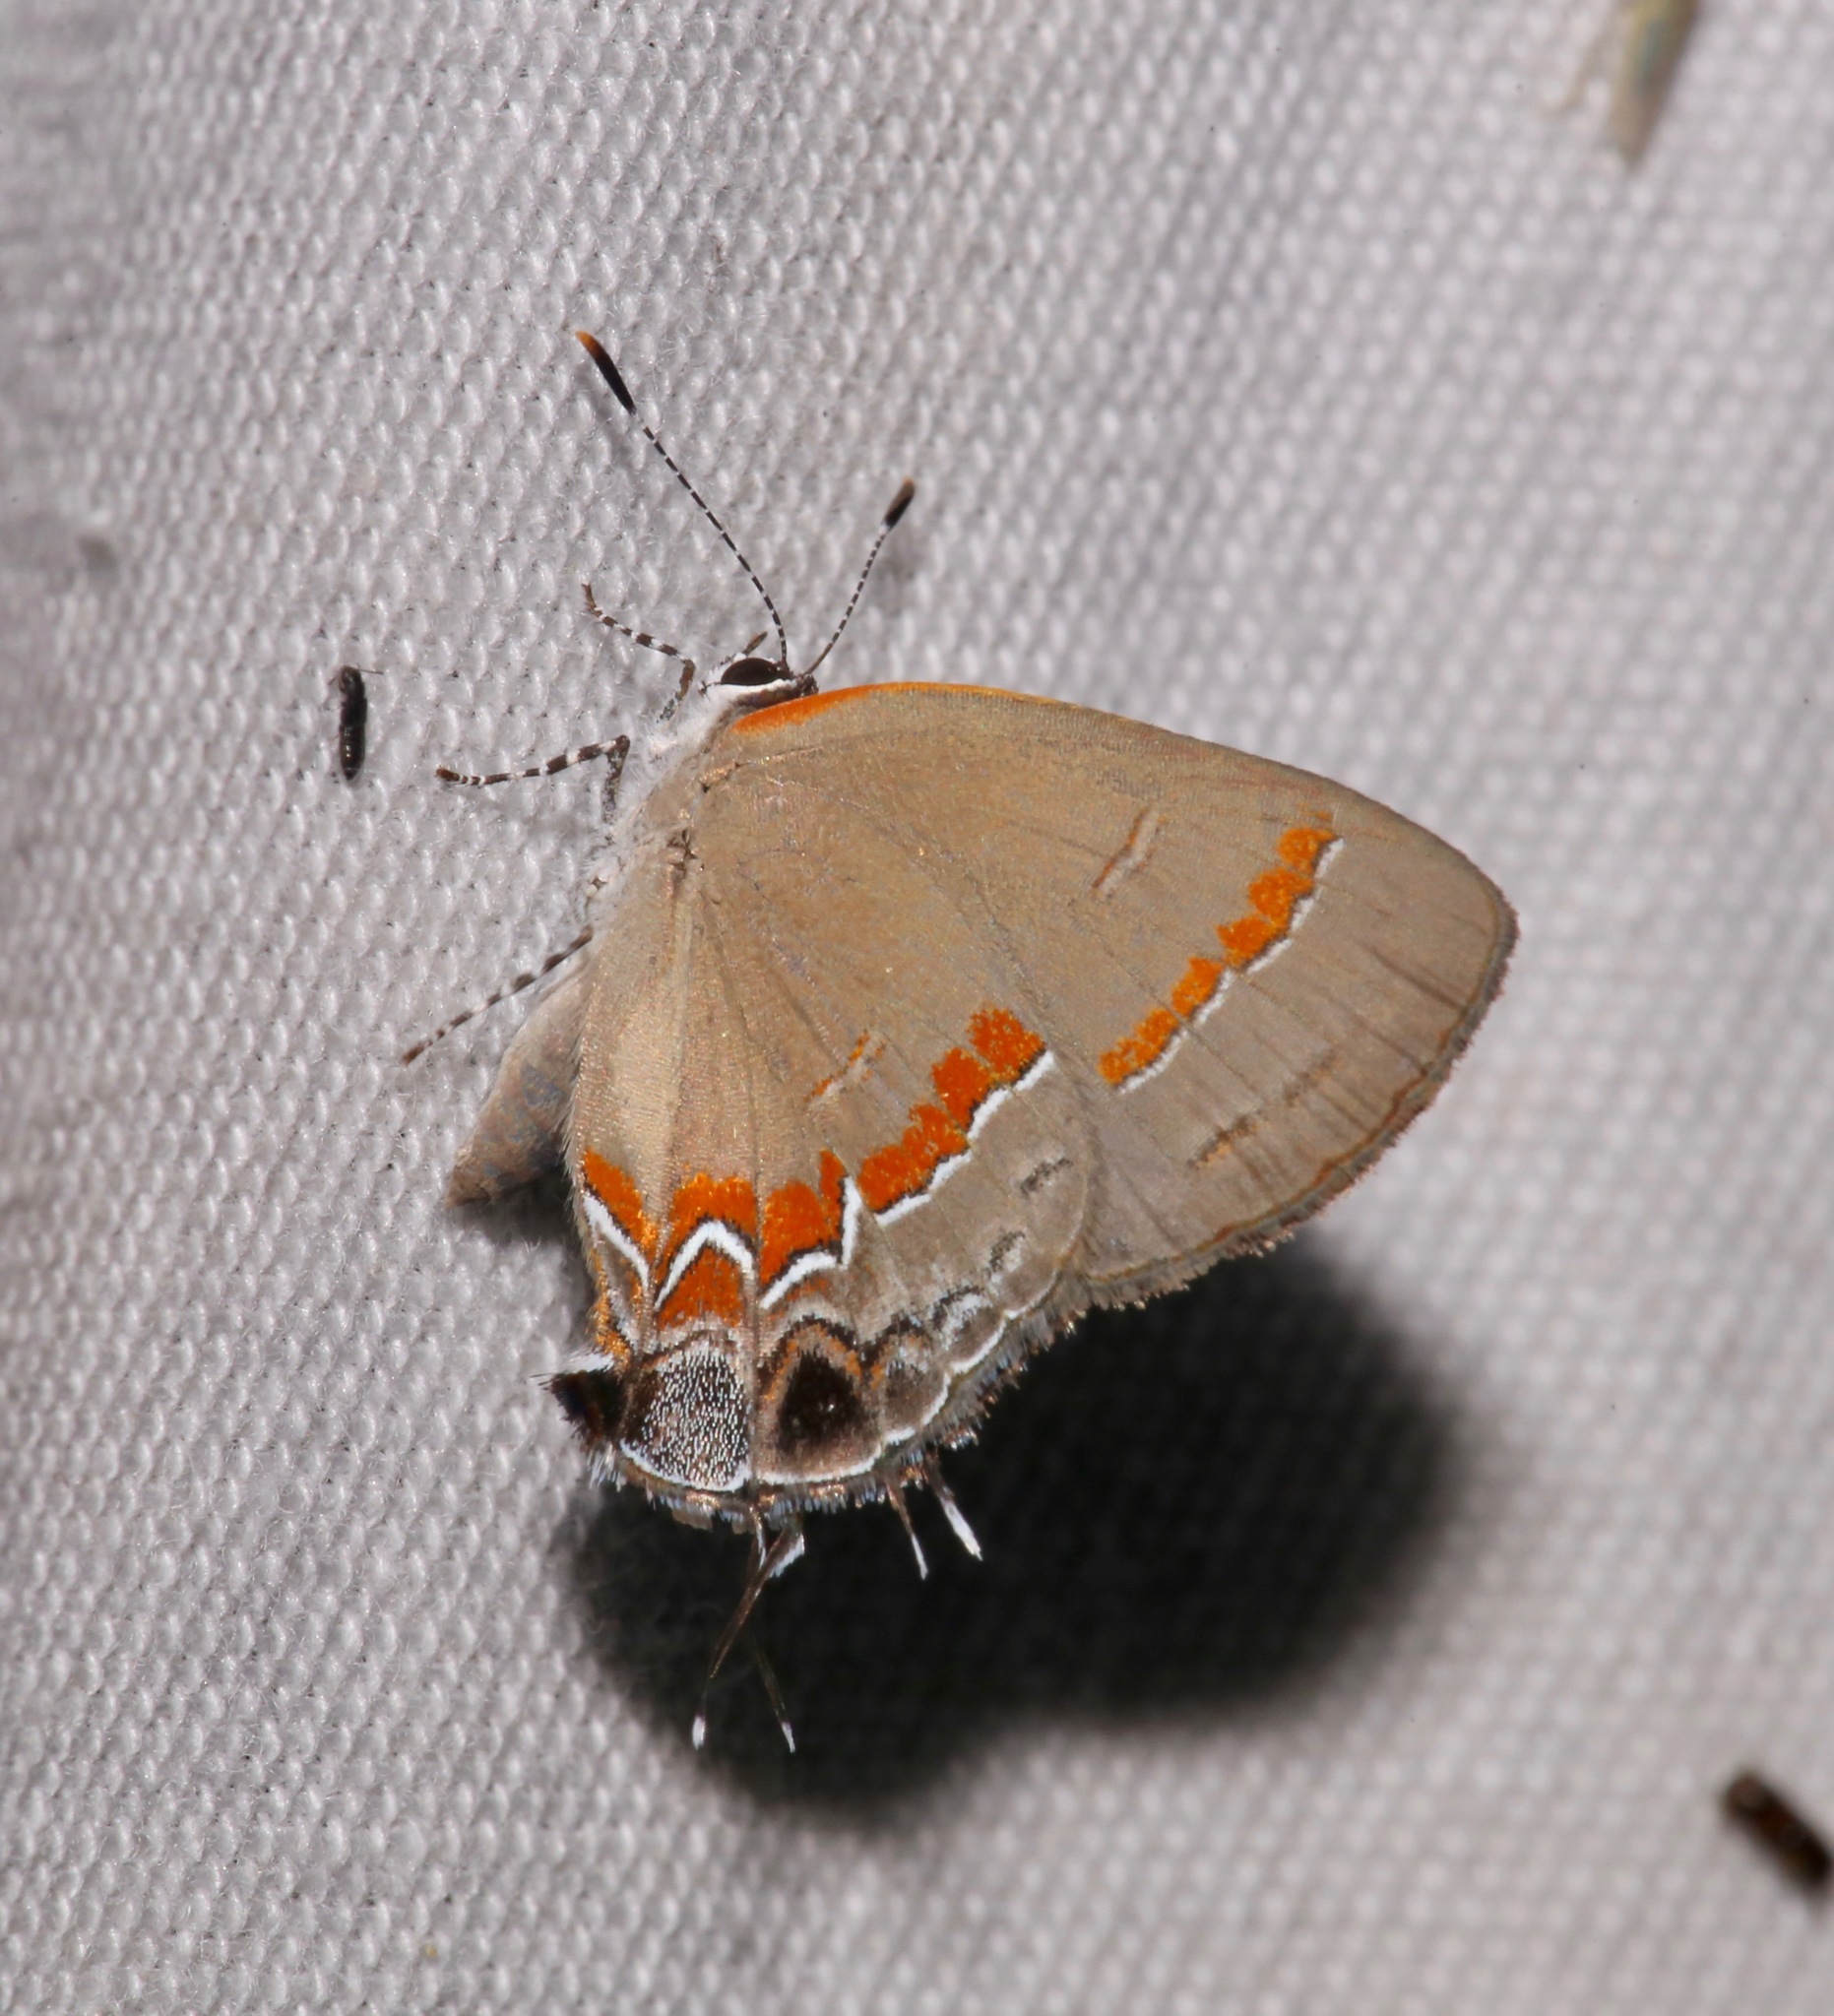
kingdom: Animalia
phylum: Arthropoda
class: Insecta
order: Lepidoptera
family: Lycaenidae
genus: Calycopis
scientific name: Calycopis cecrops
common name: Red-banded hairstreak
